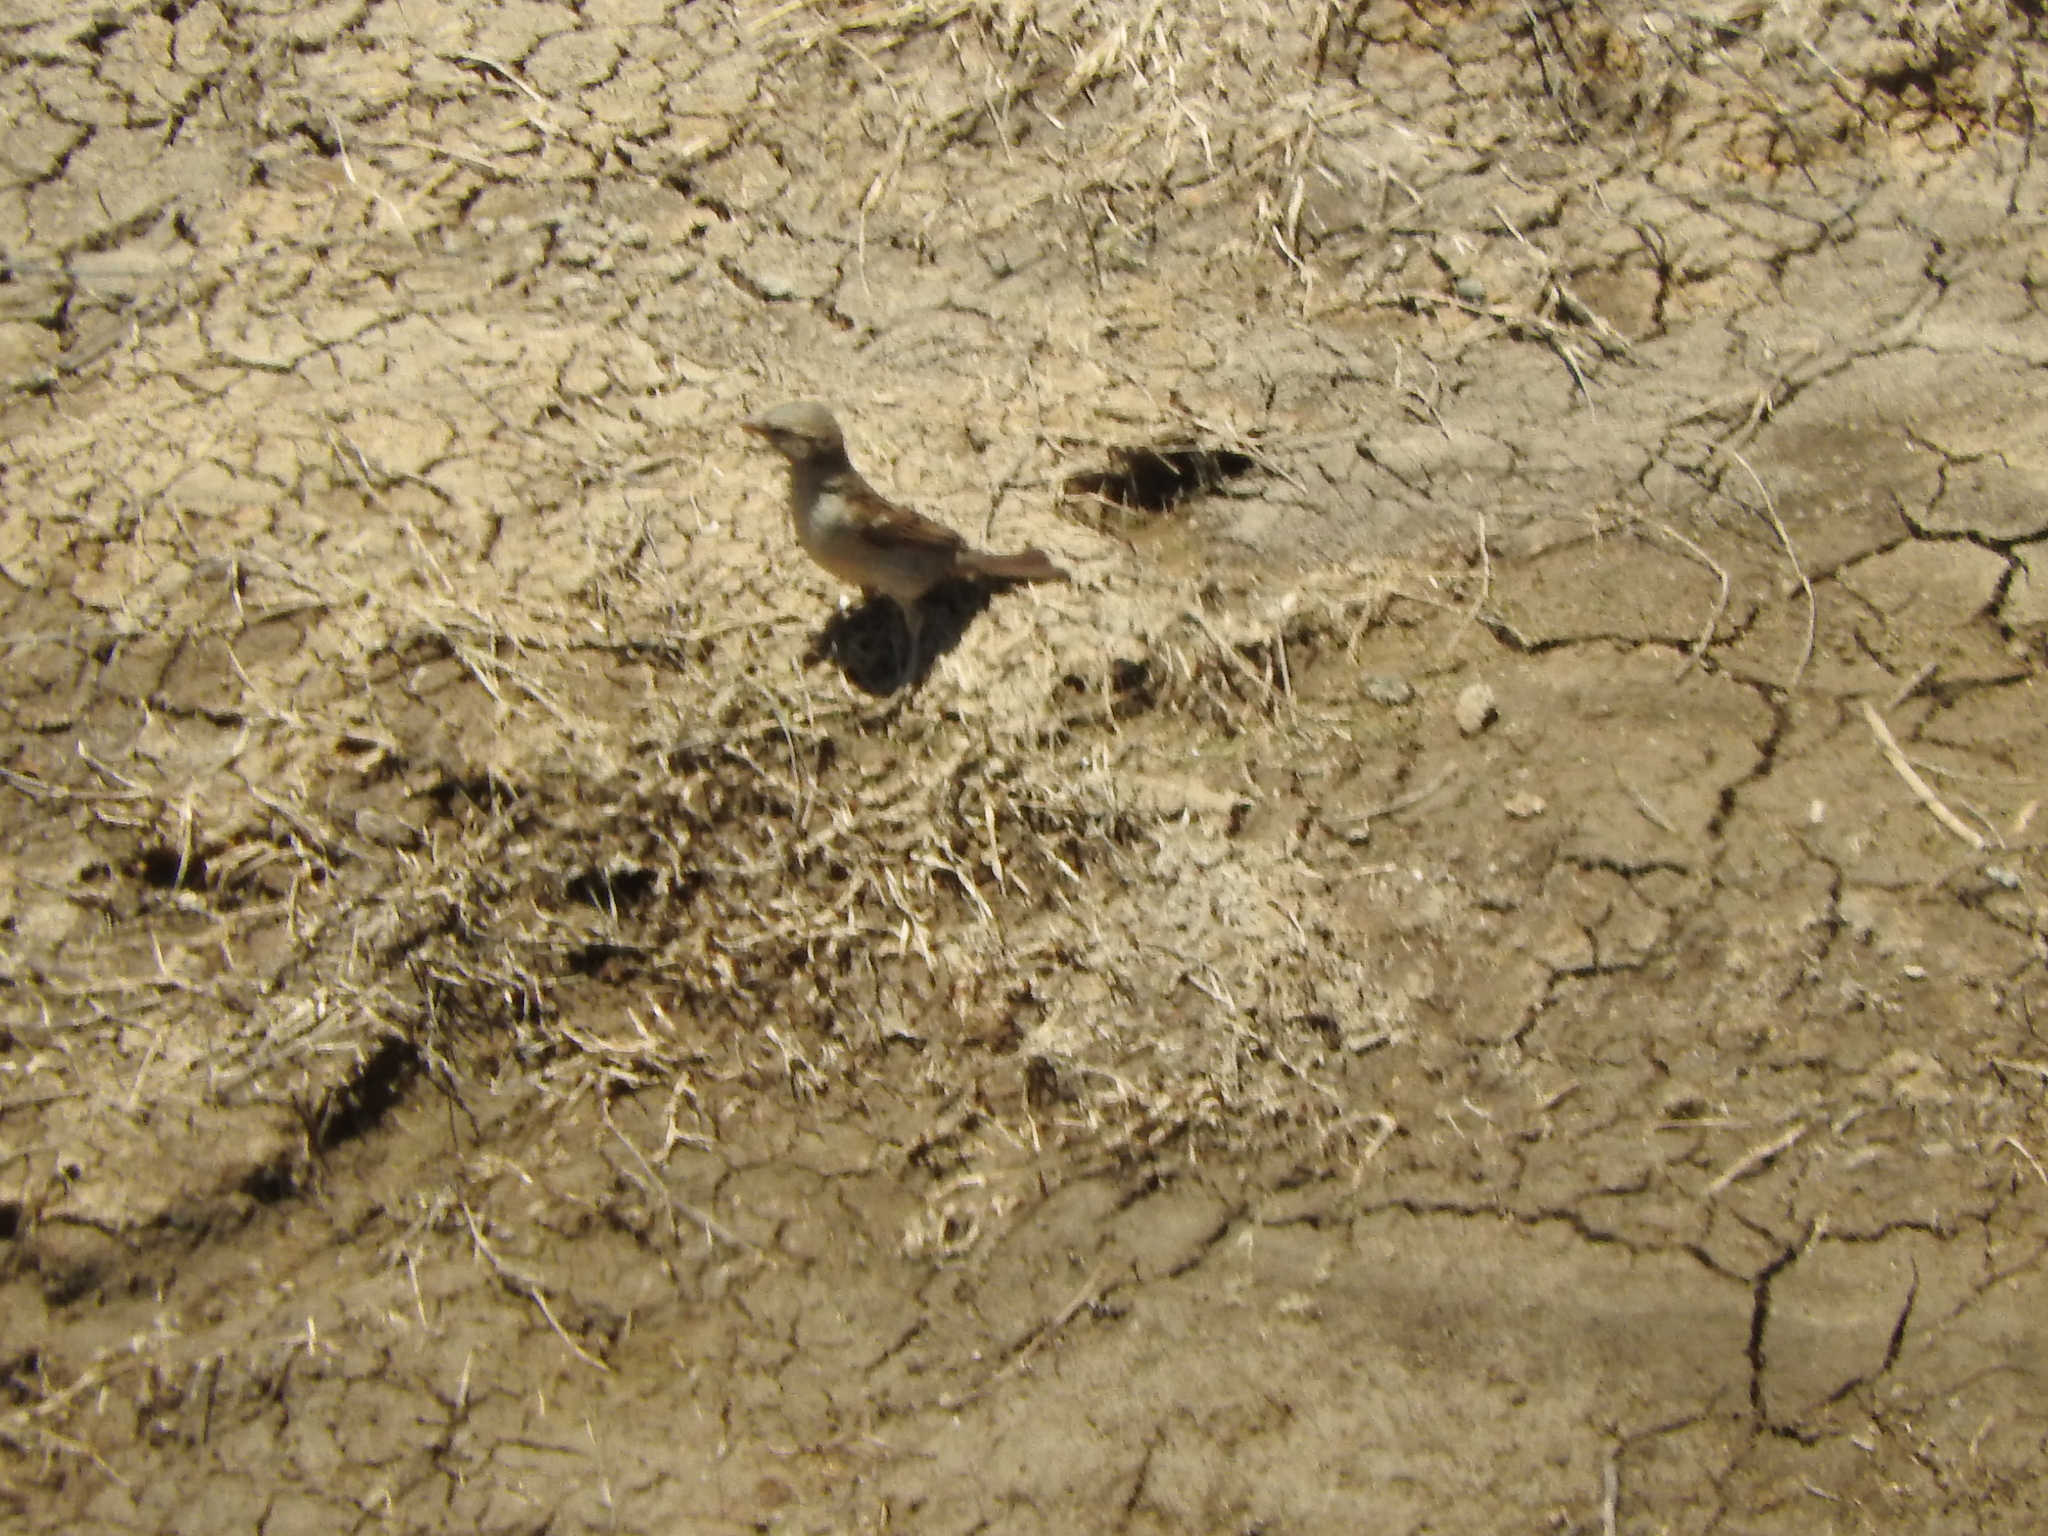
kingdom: Animalia
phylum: Chordata
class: Aves
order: Passeriformes
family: Passeridae
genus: Passer
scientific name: Passer domesticus
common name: House sparrow
